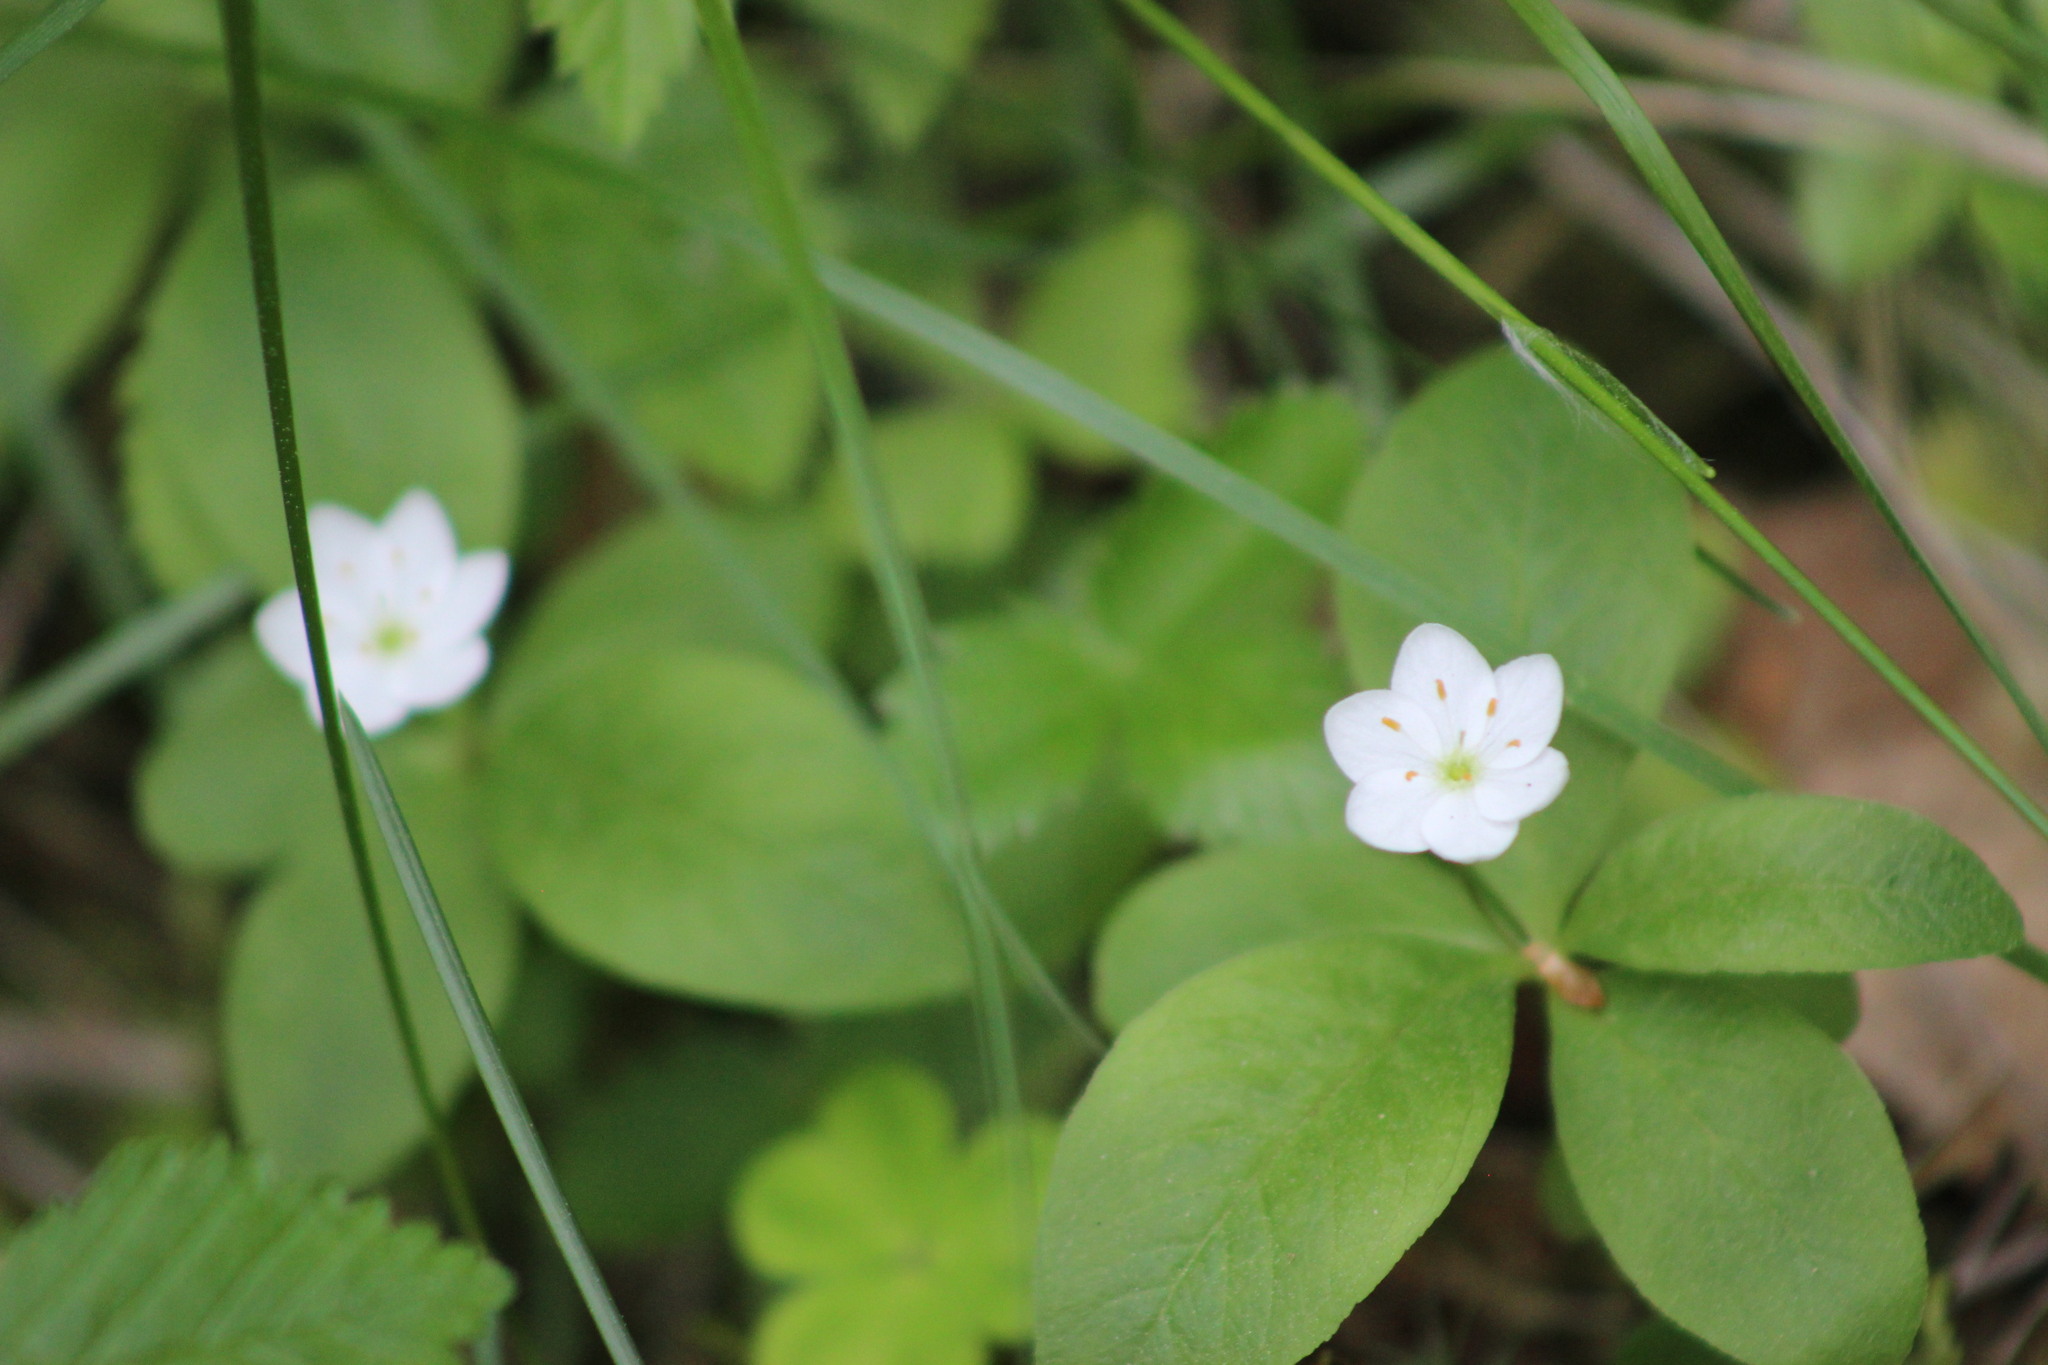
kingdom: Plantae
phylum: Tracheophyta
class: Magnoliopsida
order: Ericales
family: Primulaceae
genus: Lysimachia
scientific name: Lysimachia europaea
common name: Arctic starflower
